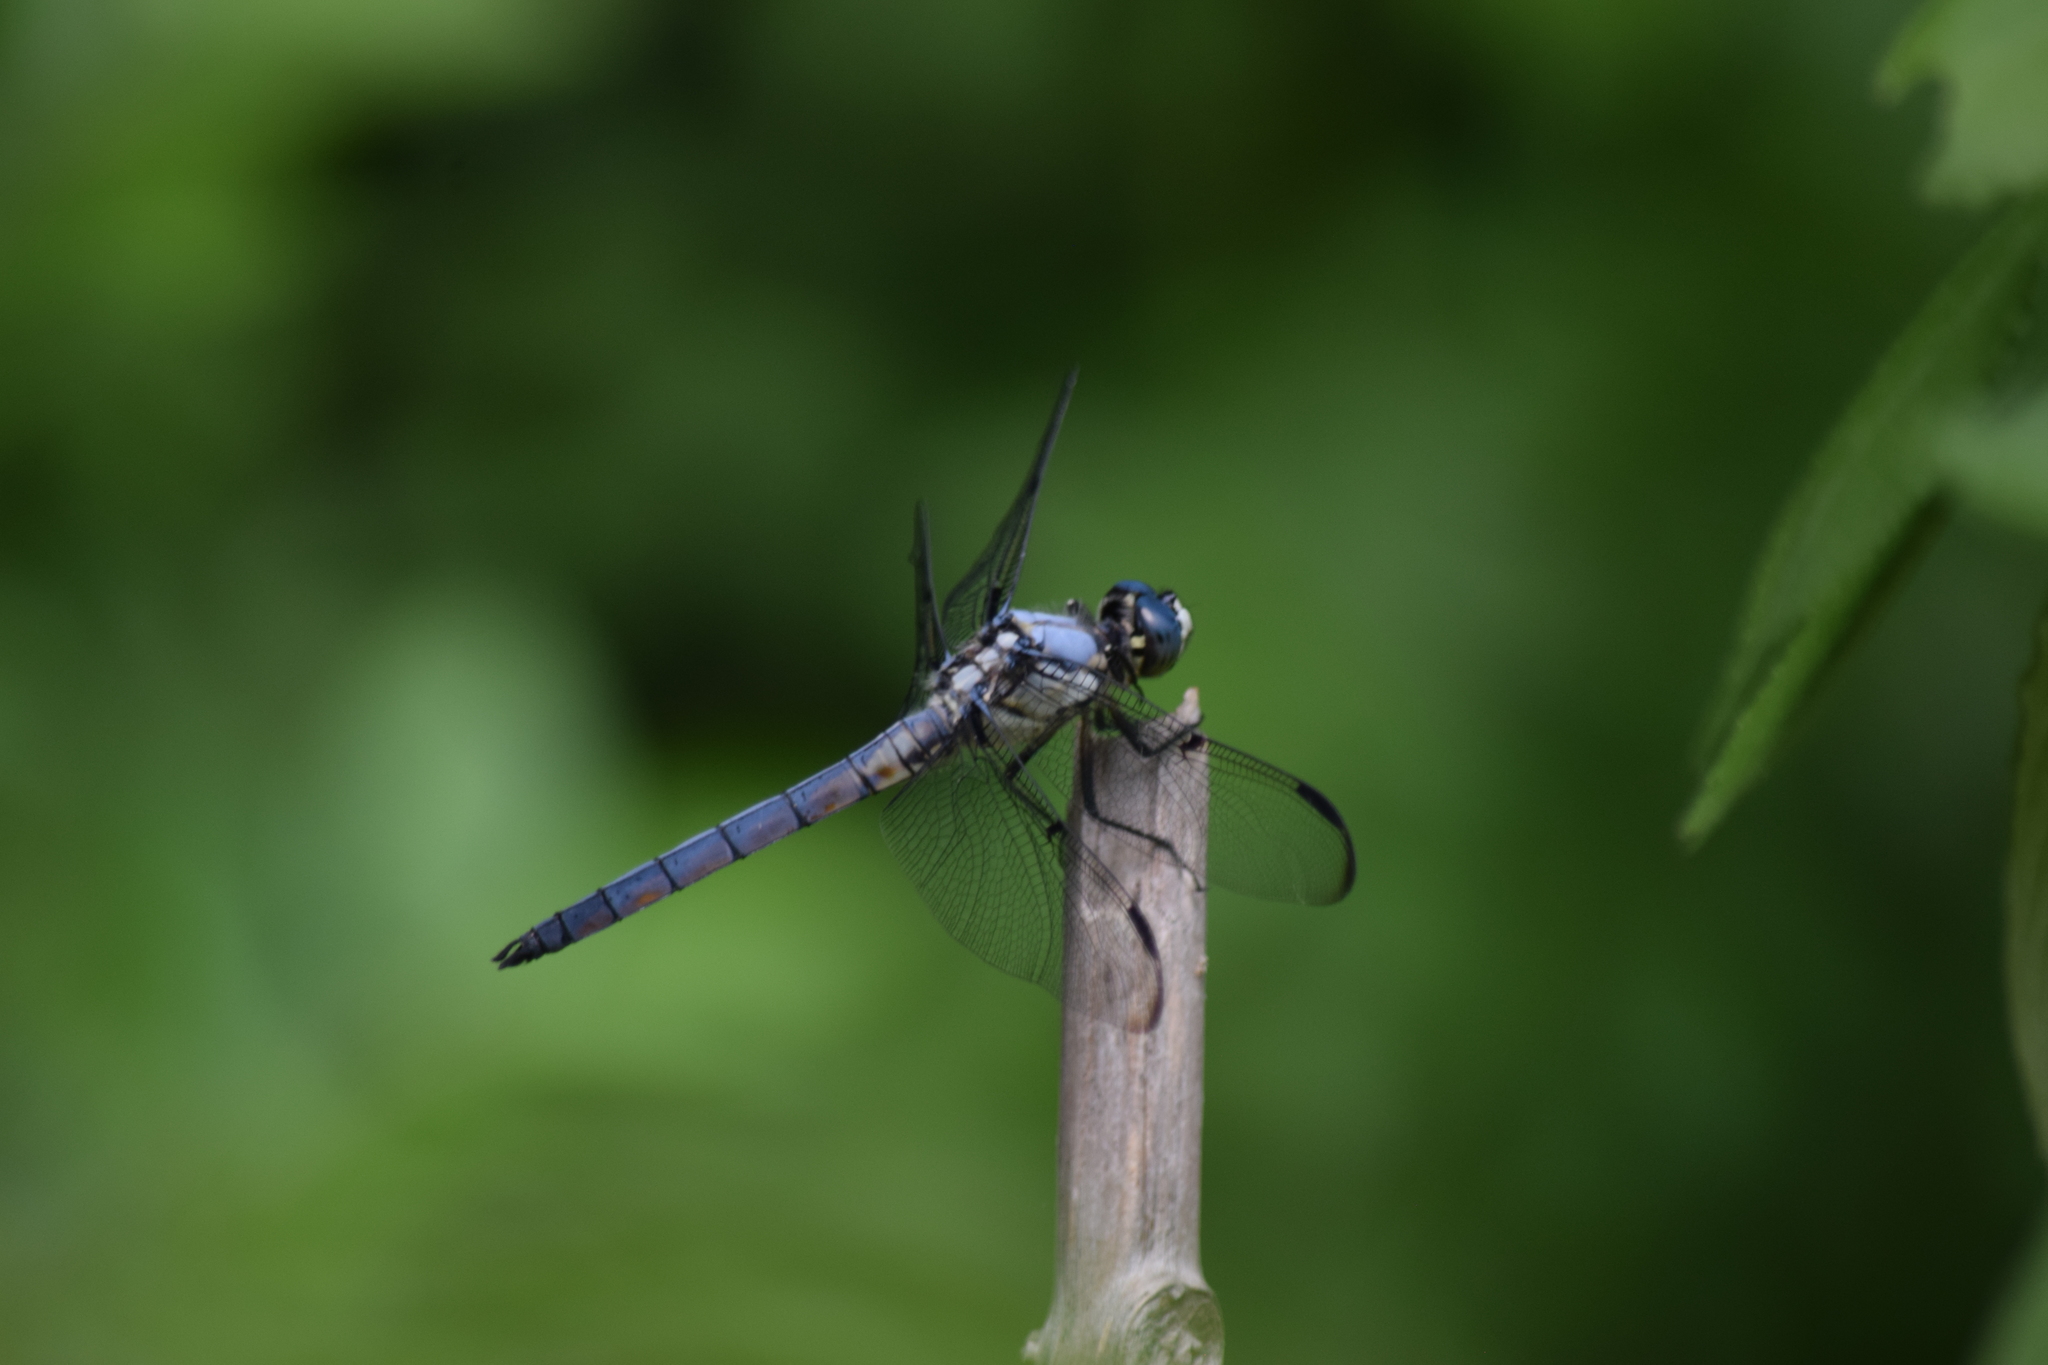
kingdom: Animalia
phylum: Arthropoda
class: Insecta
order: Odonata
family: Libellulidae
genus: Libellula
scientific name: Libellula vibrans
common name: Great blue skimmer
